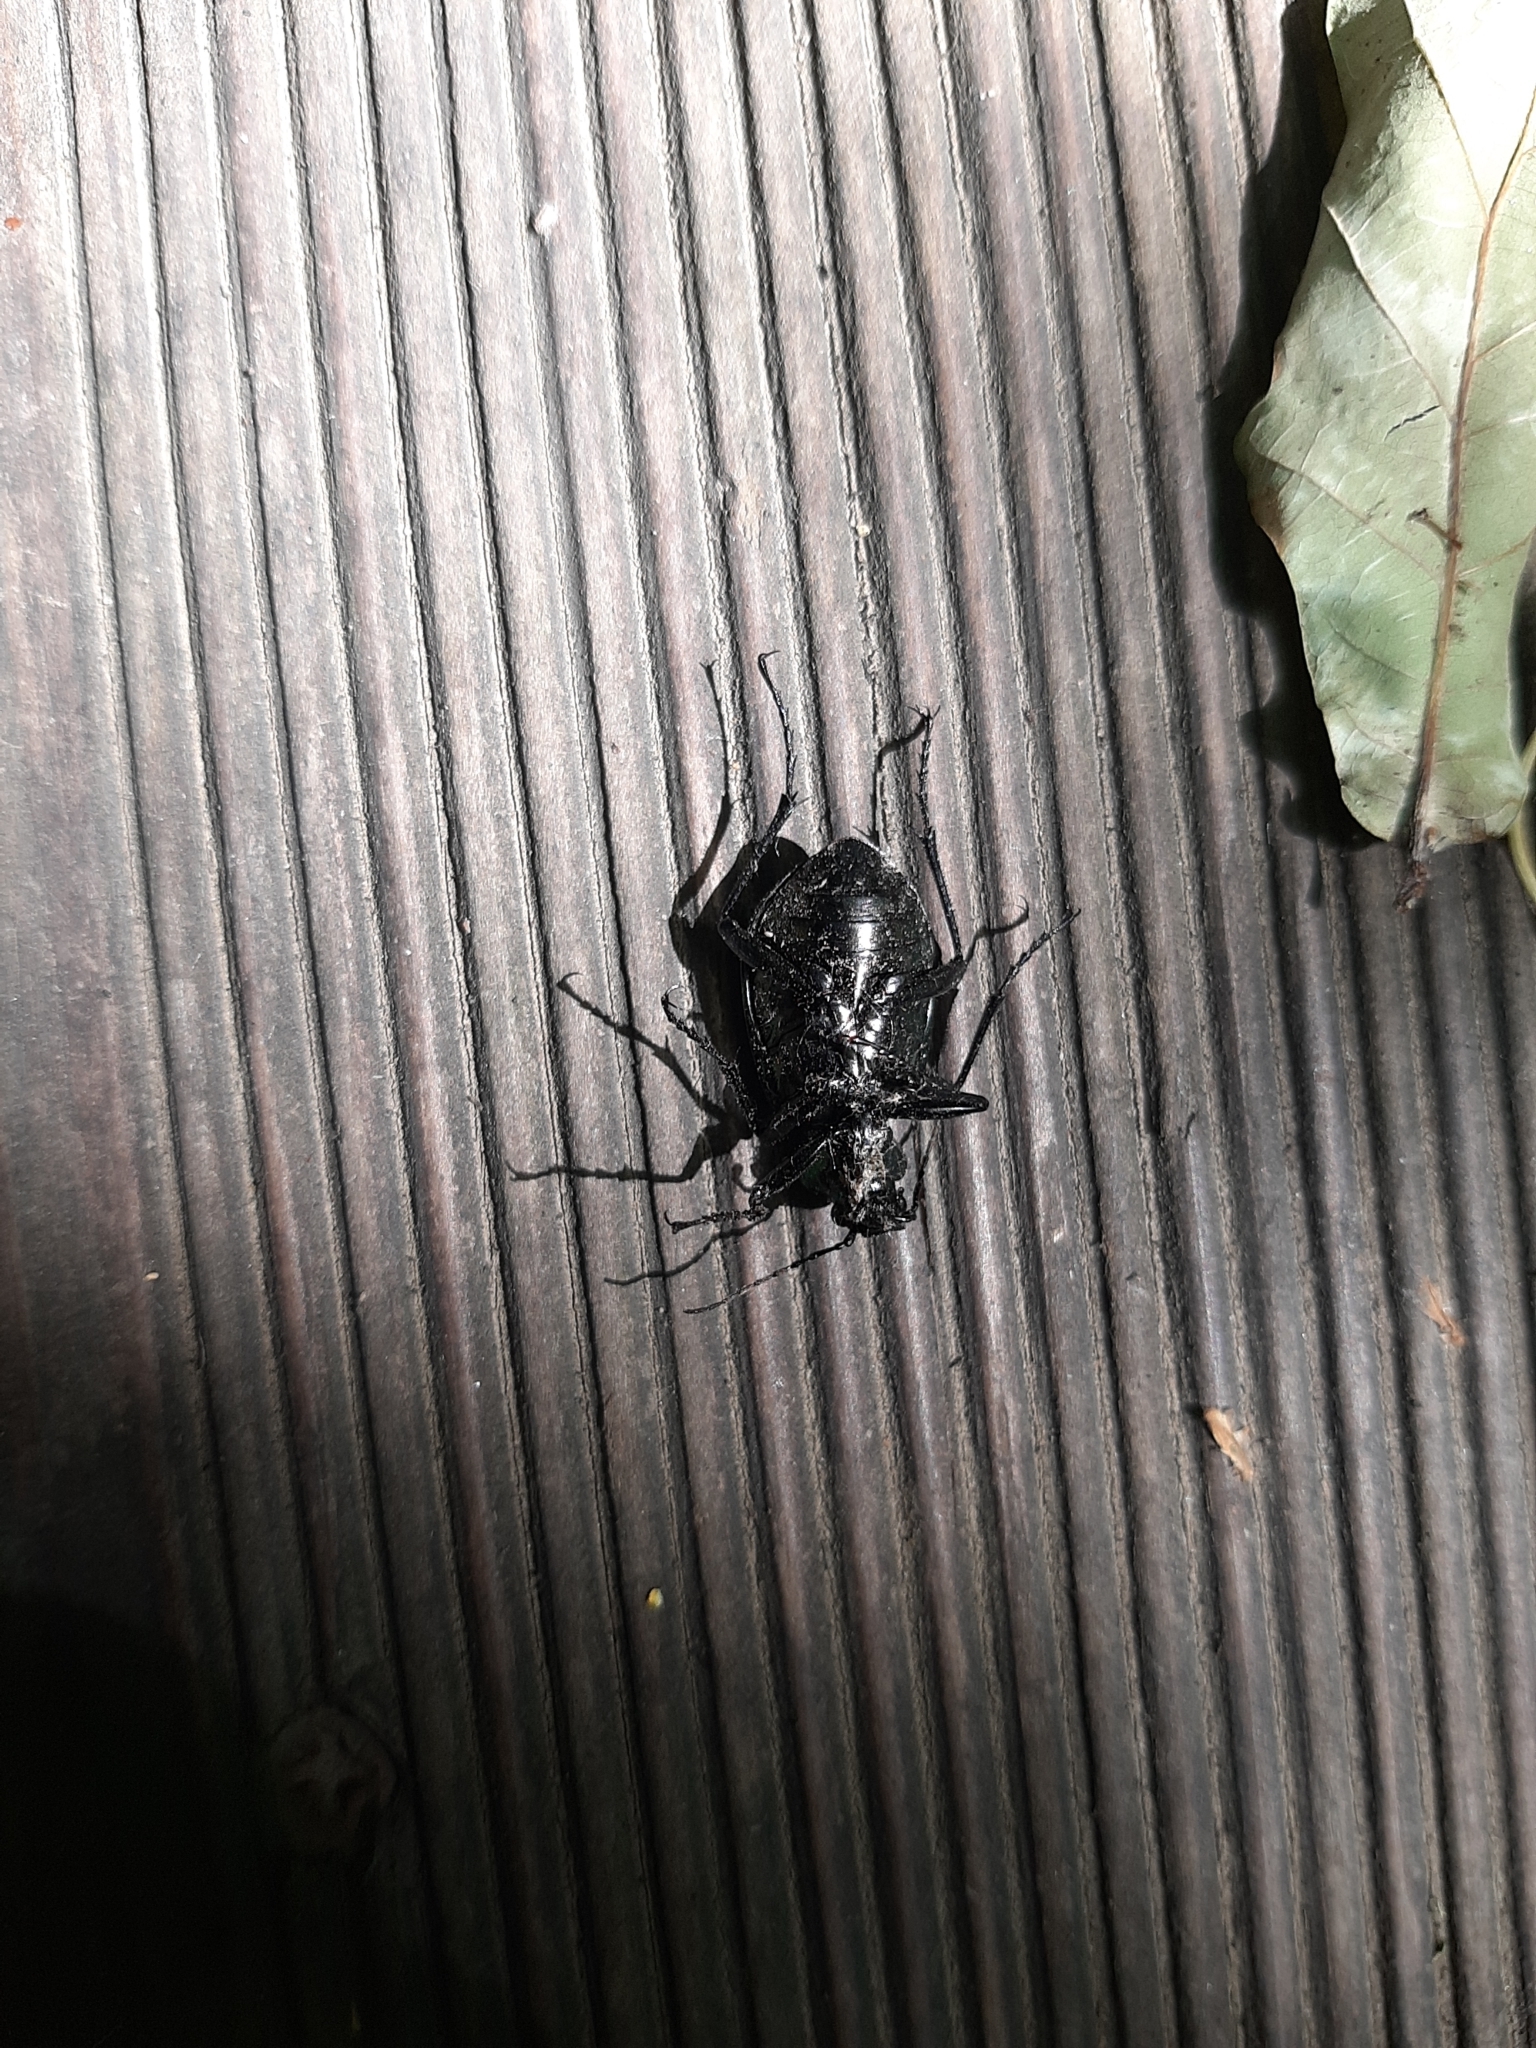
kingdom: Animalia
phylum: Arthropoda
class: Insecta
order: Coleoptera
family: Carabidae
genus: Calosoma
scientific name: Calosoma inquisitor
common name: Caterpillar-hunter
